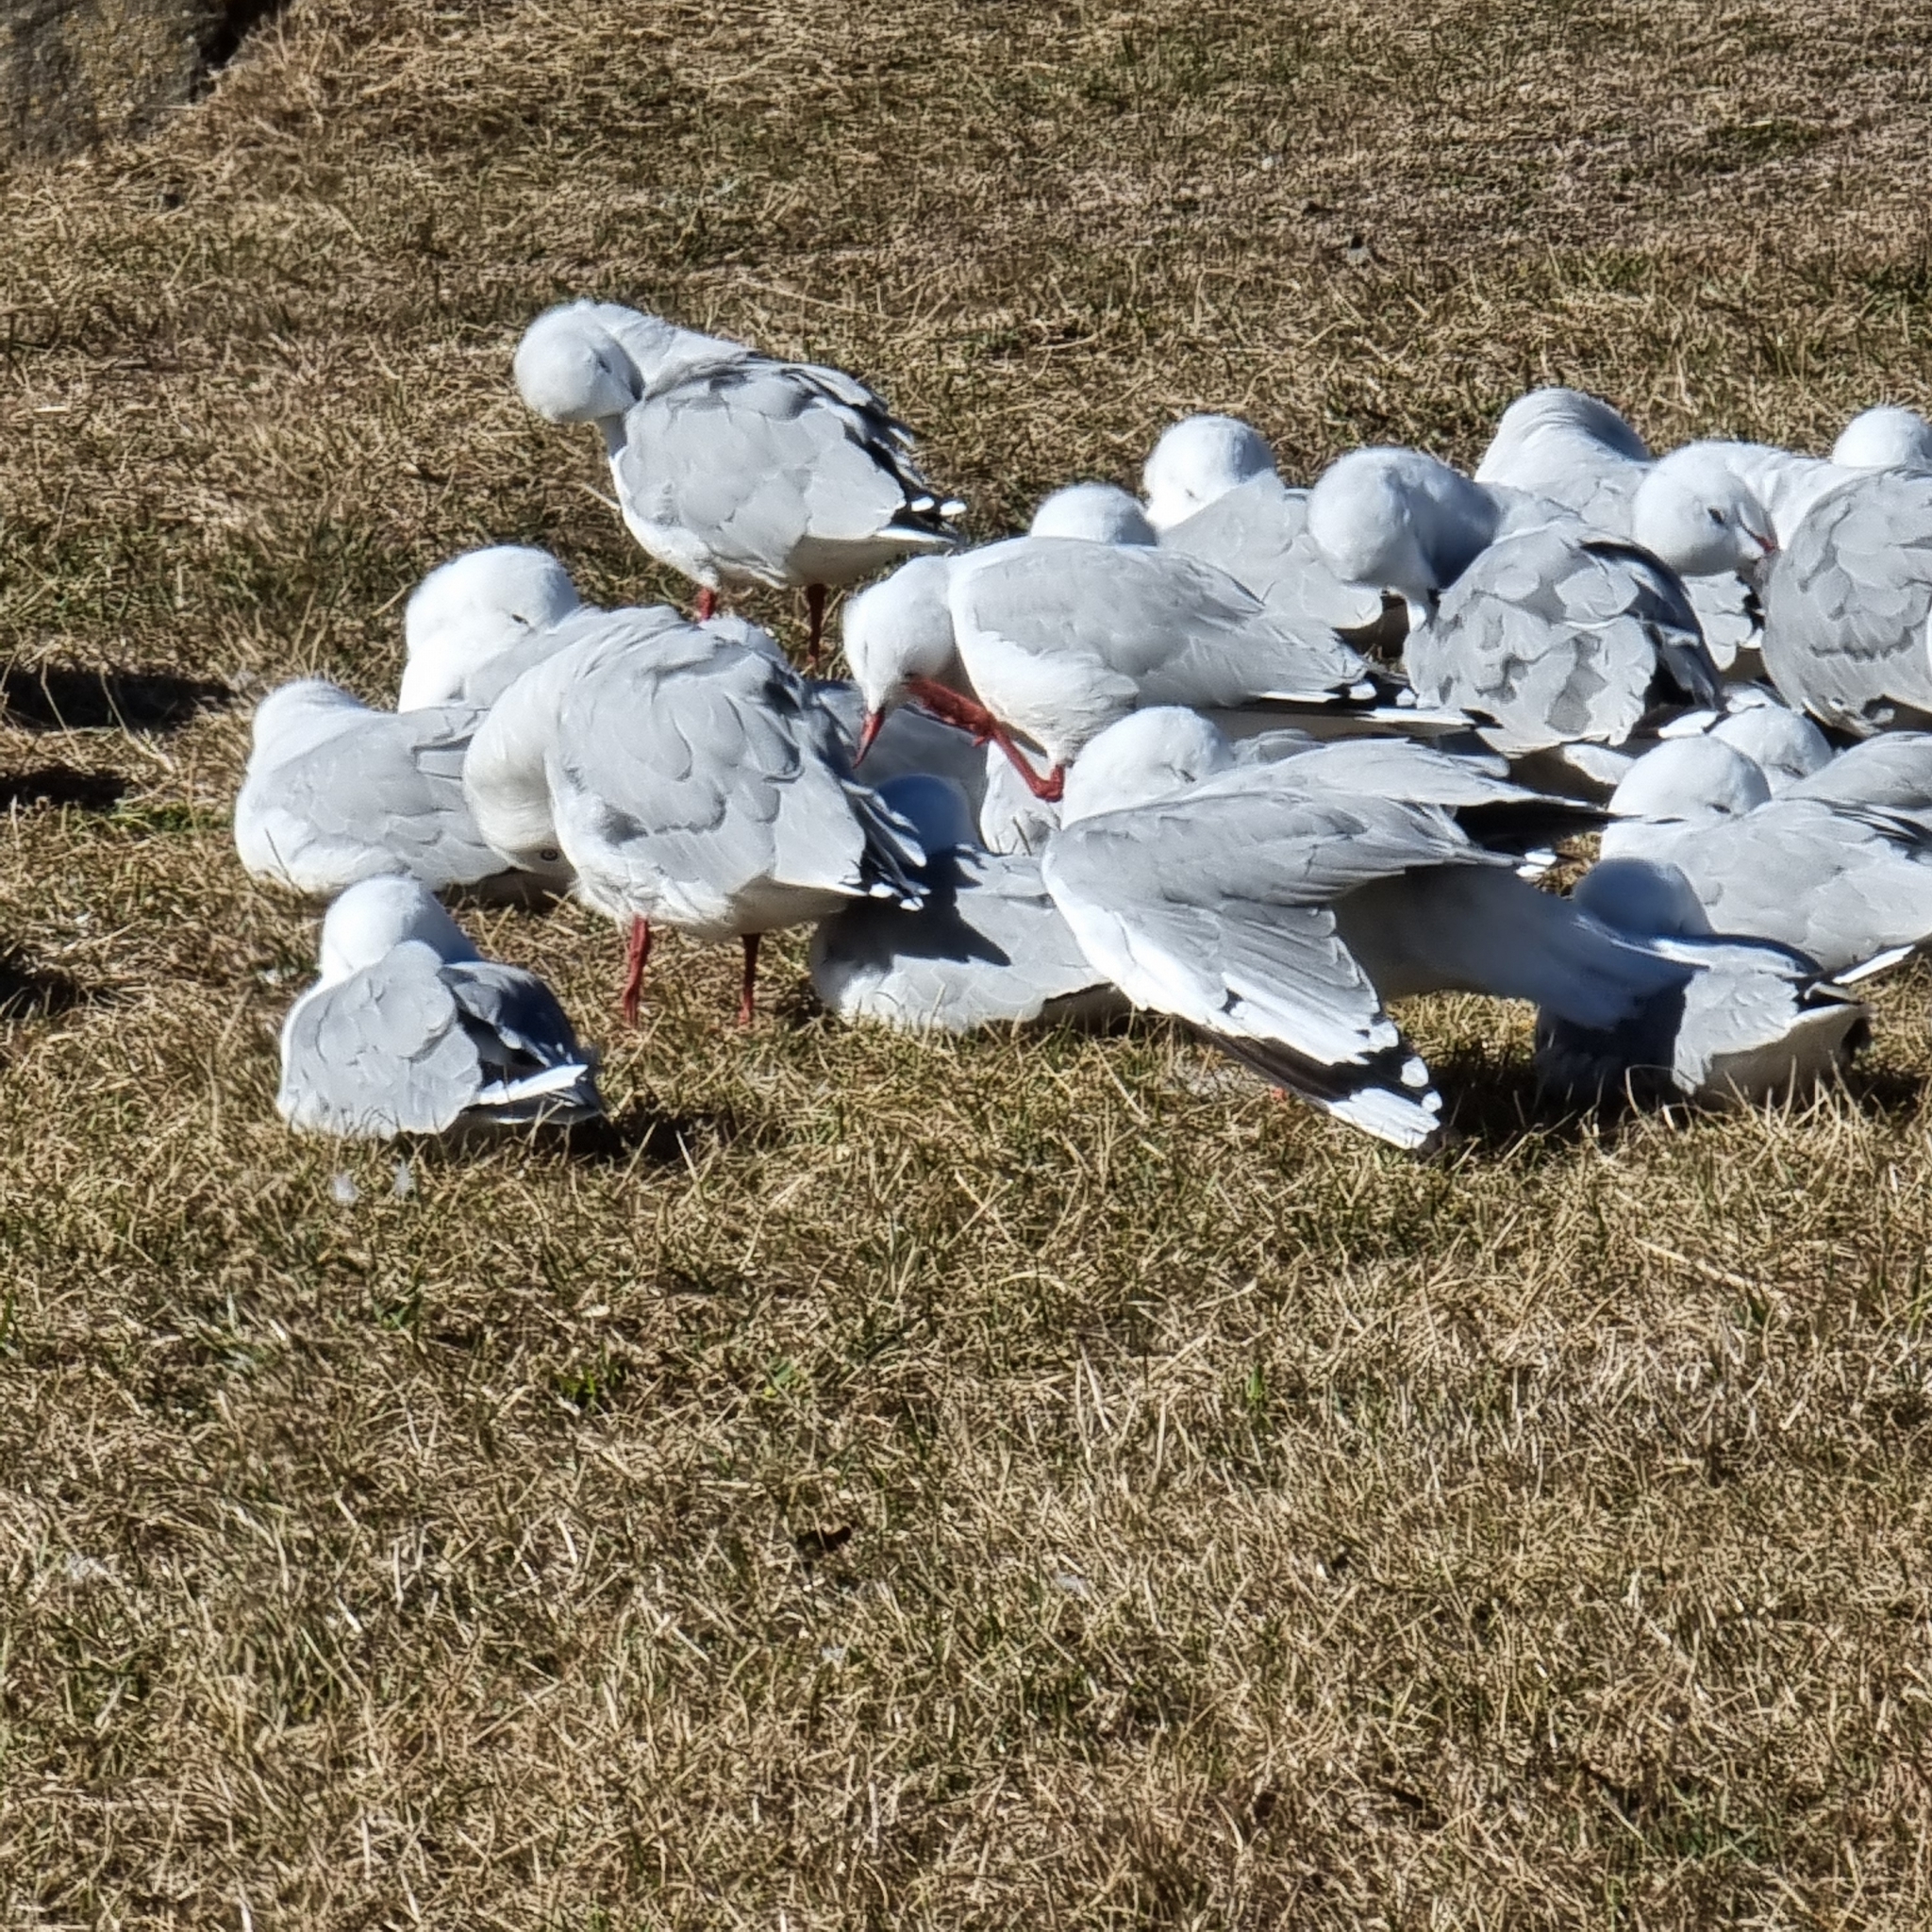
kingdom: Animalia
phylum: Chordata
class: Aves
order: Charadriiformes
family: Laridae
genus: Chroicocephalus
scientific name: Chroicocephalus novaehollandiae
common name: Silver gull
